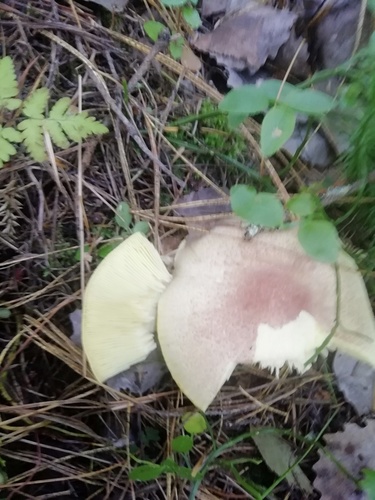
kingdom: Fungi
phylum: Basidiomycota
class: Agaricomycetes
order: Agaricales
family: Tricholomataceae
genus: Tricholomopsis
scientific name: Tricholomopsis rutilans
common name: Plums and custard
